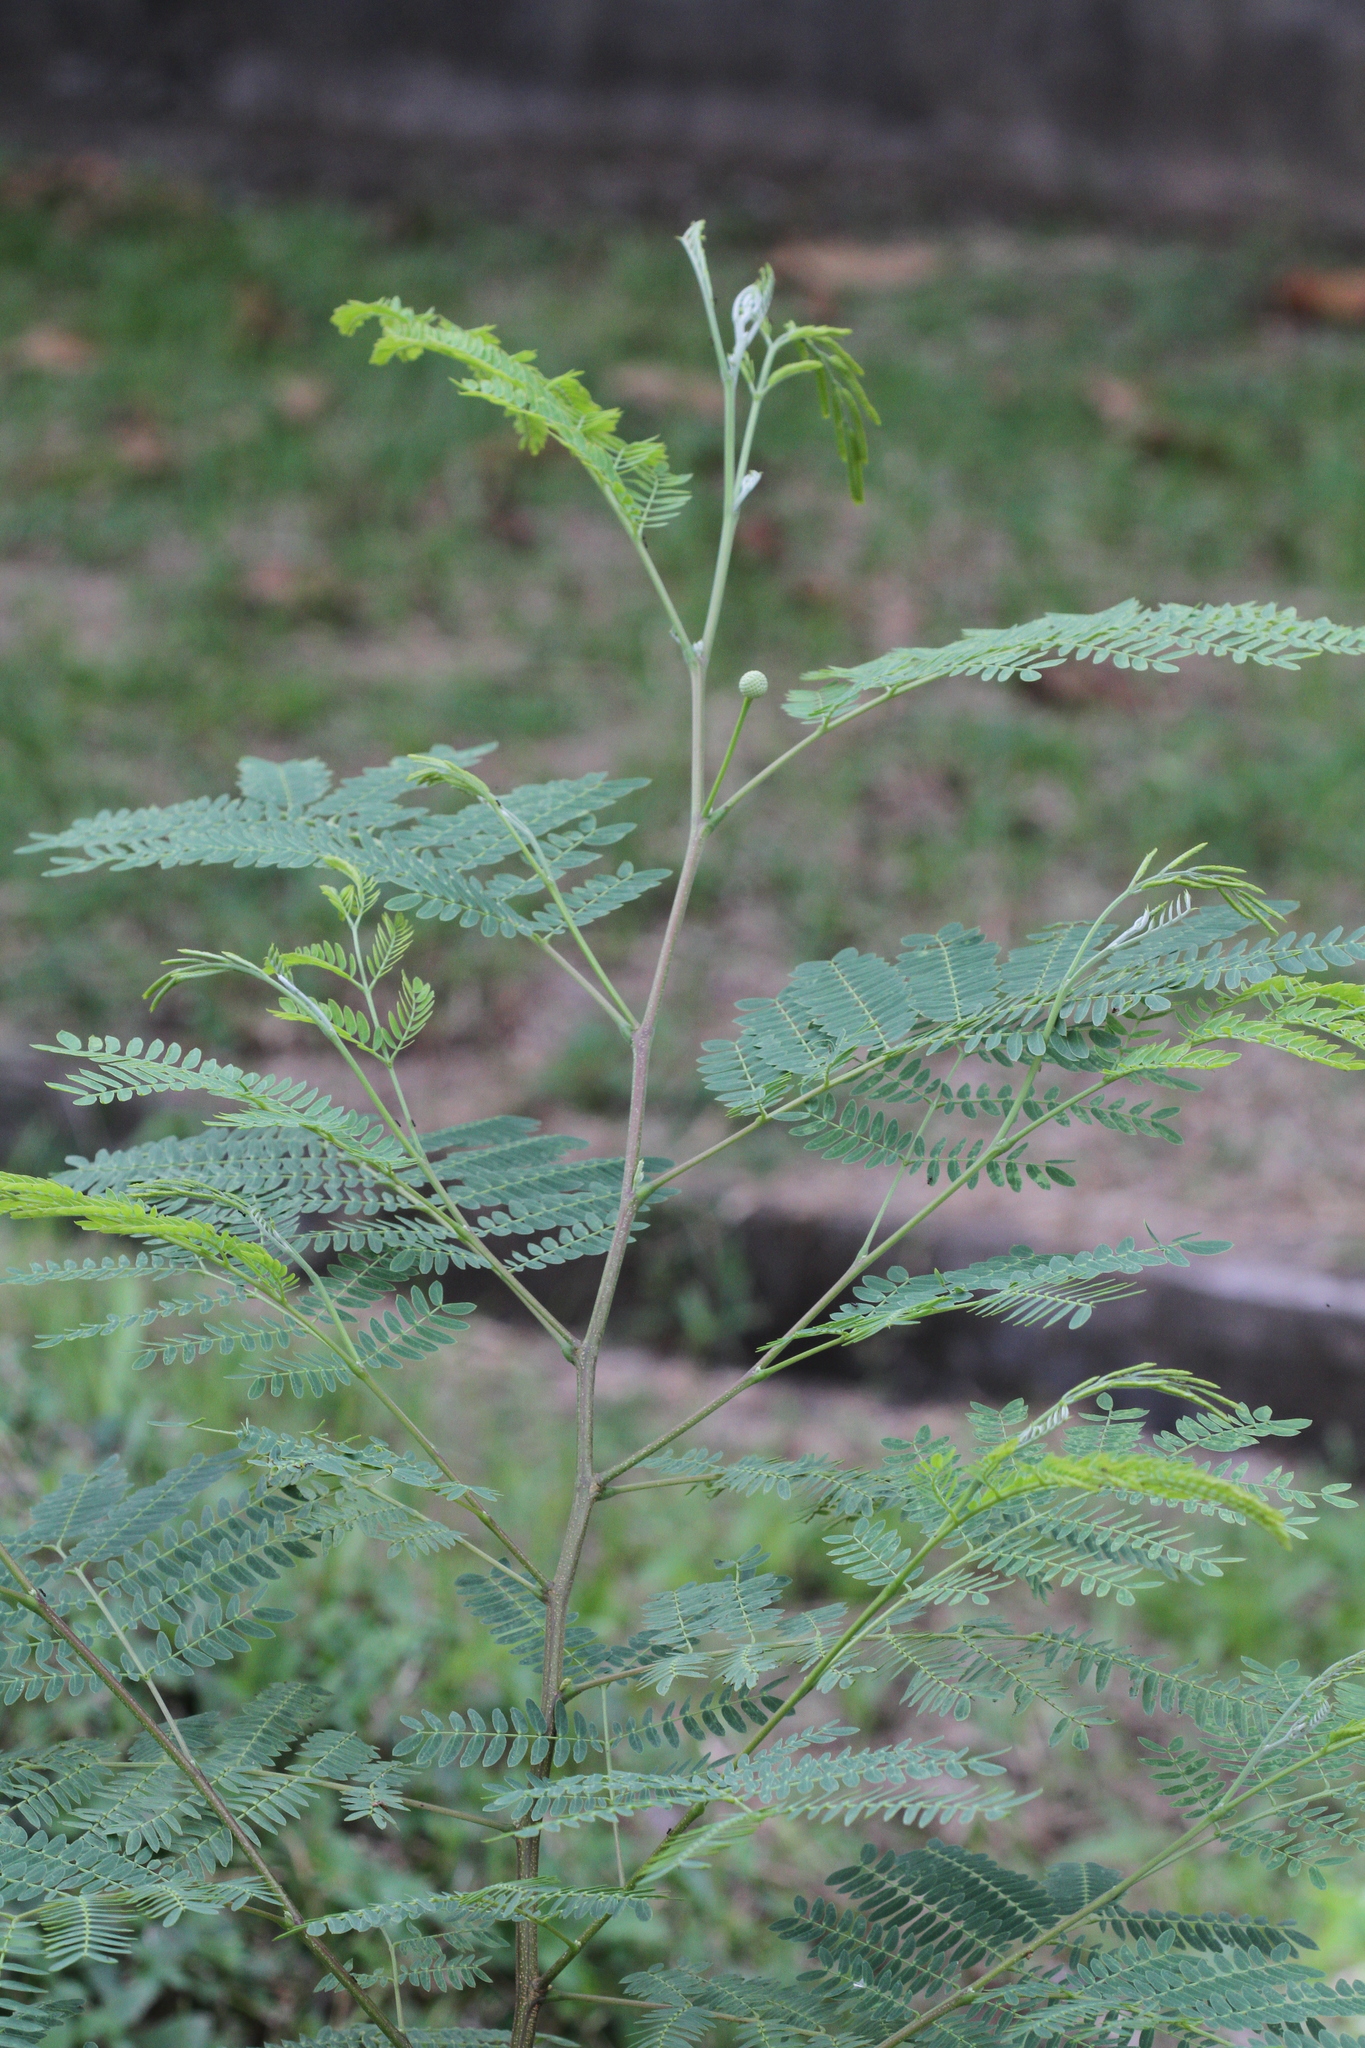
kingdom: Plantae
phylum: Tracheophyta
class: Magnoliopsida
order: Fabales
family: Fabaceae
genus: Leucaena
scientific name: Leucaena leucocephala
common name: White leadtree
